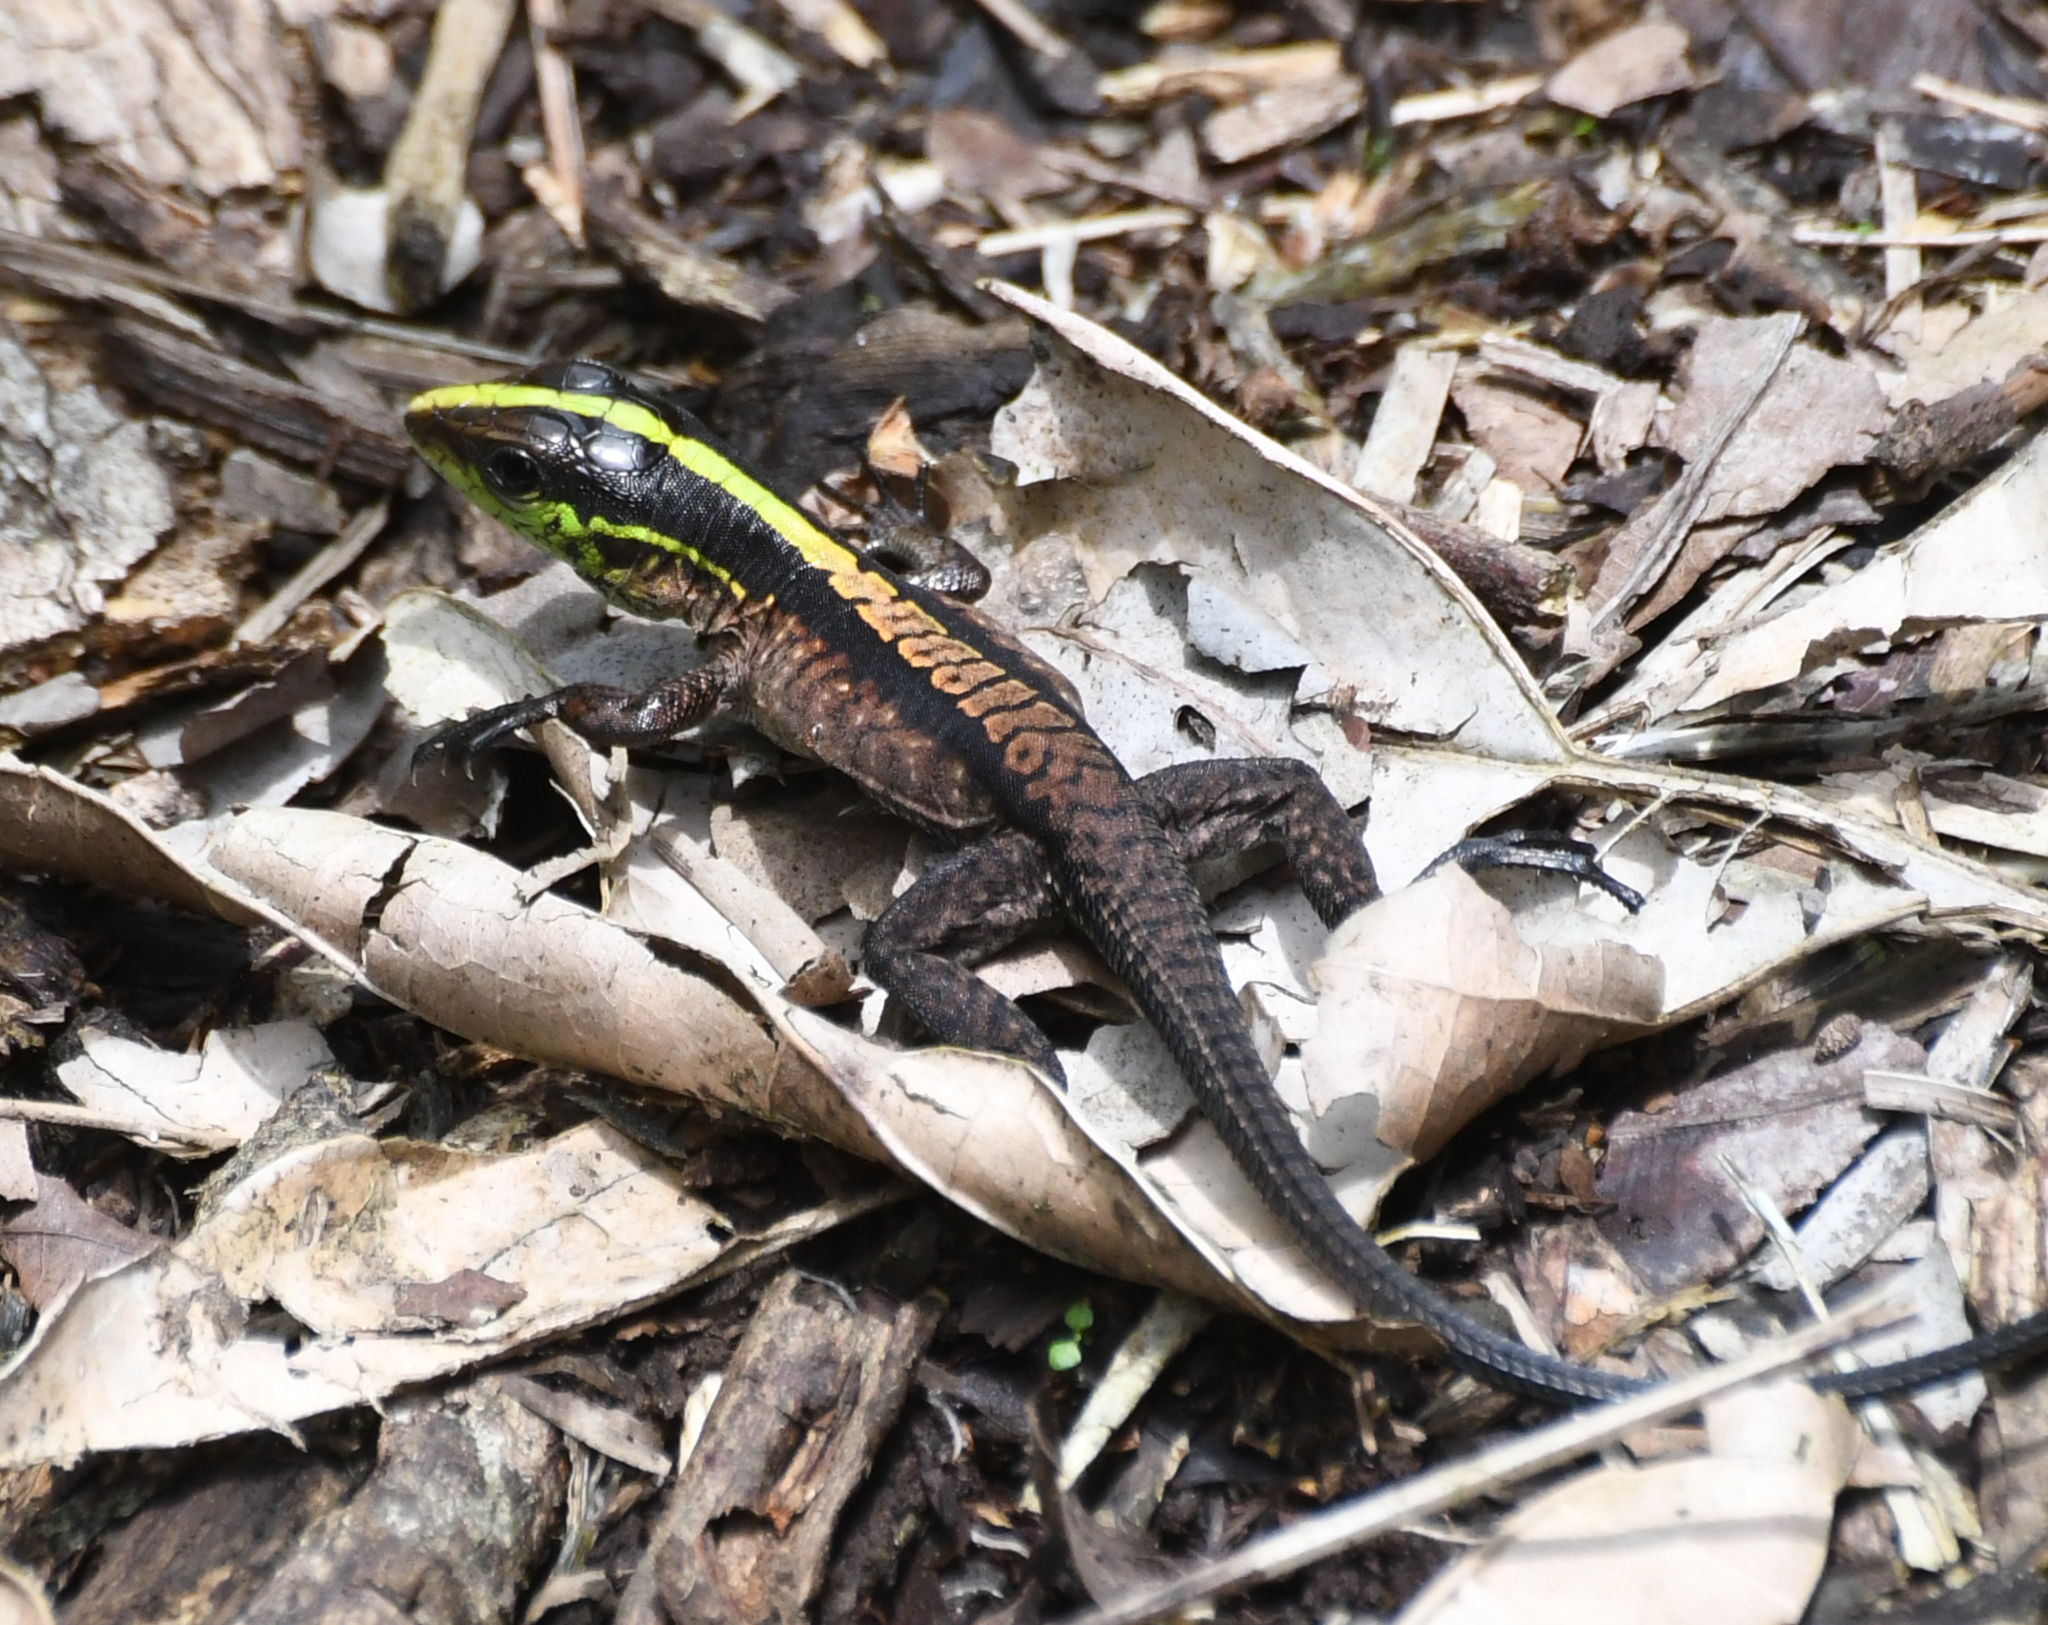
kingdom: Animalia
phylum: Chordata
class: Squamata
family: Teiidae
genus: Kentropyx
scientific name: Kentropyx pelviceps
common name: Forest whiptail
